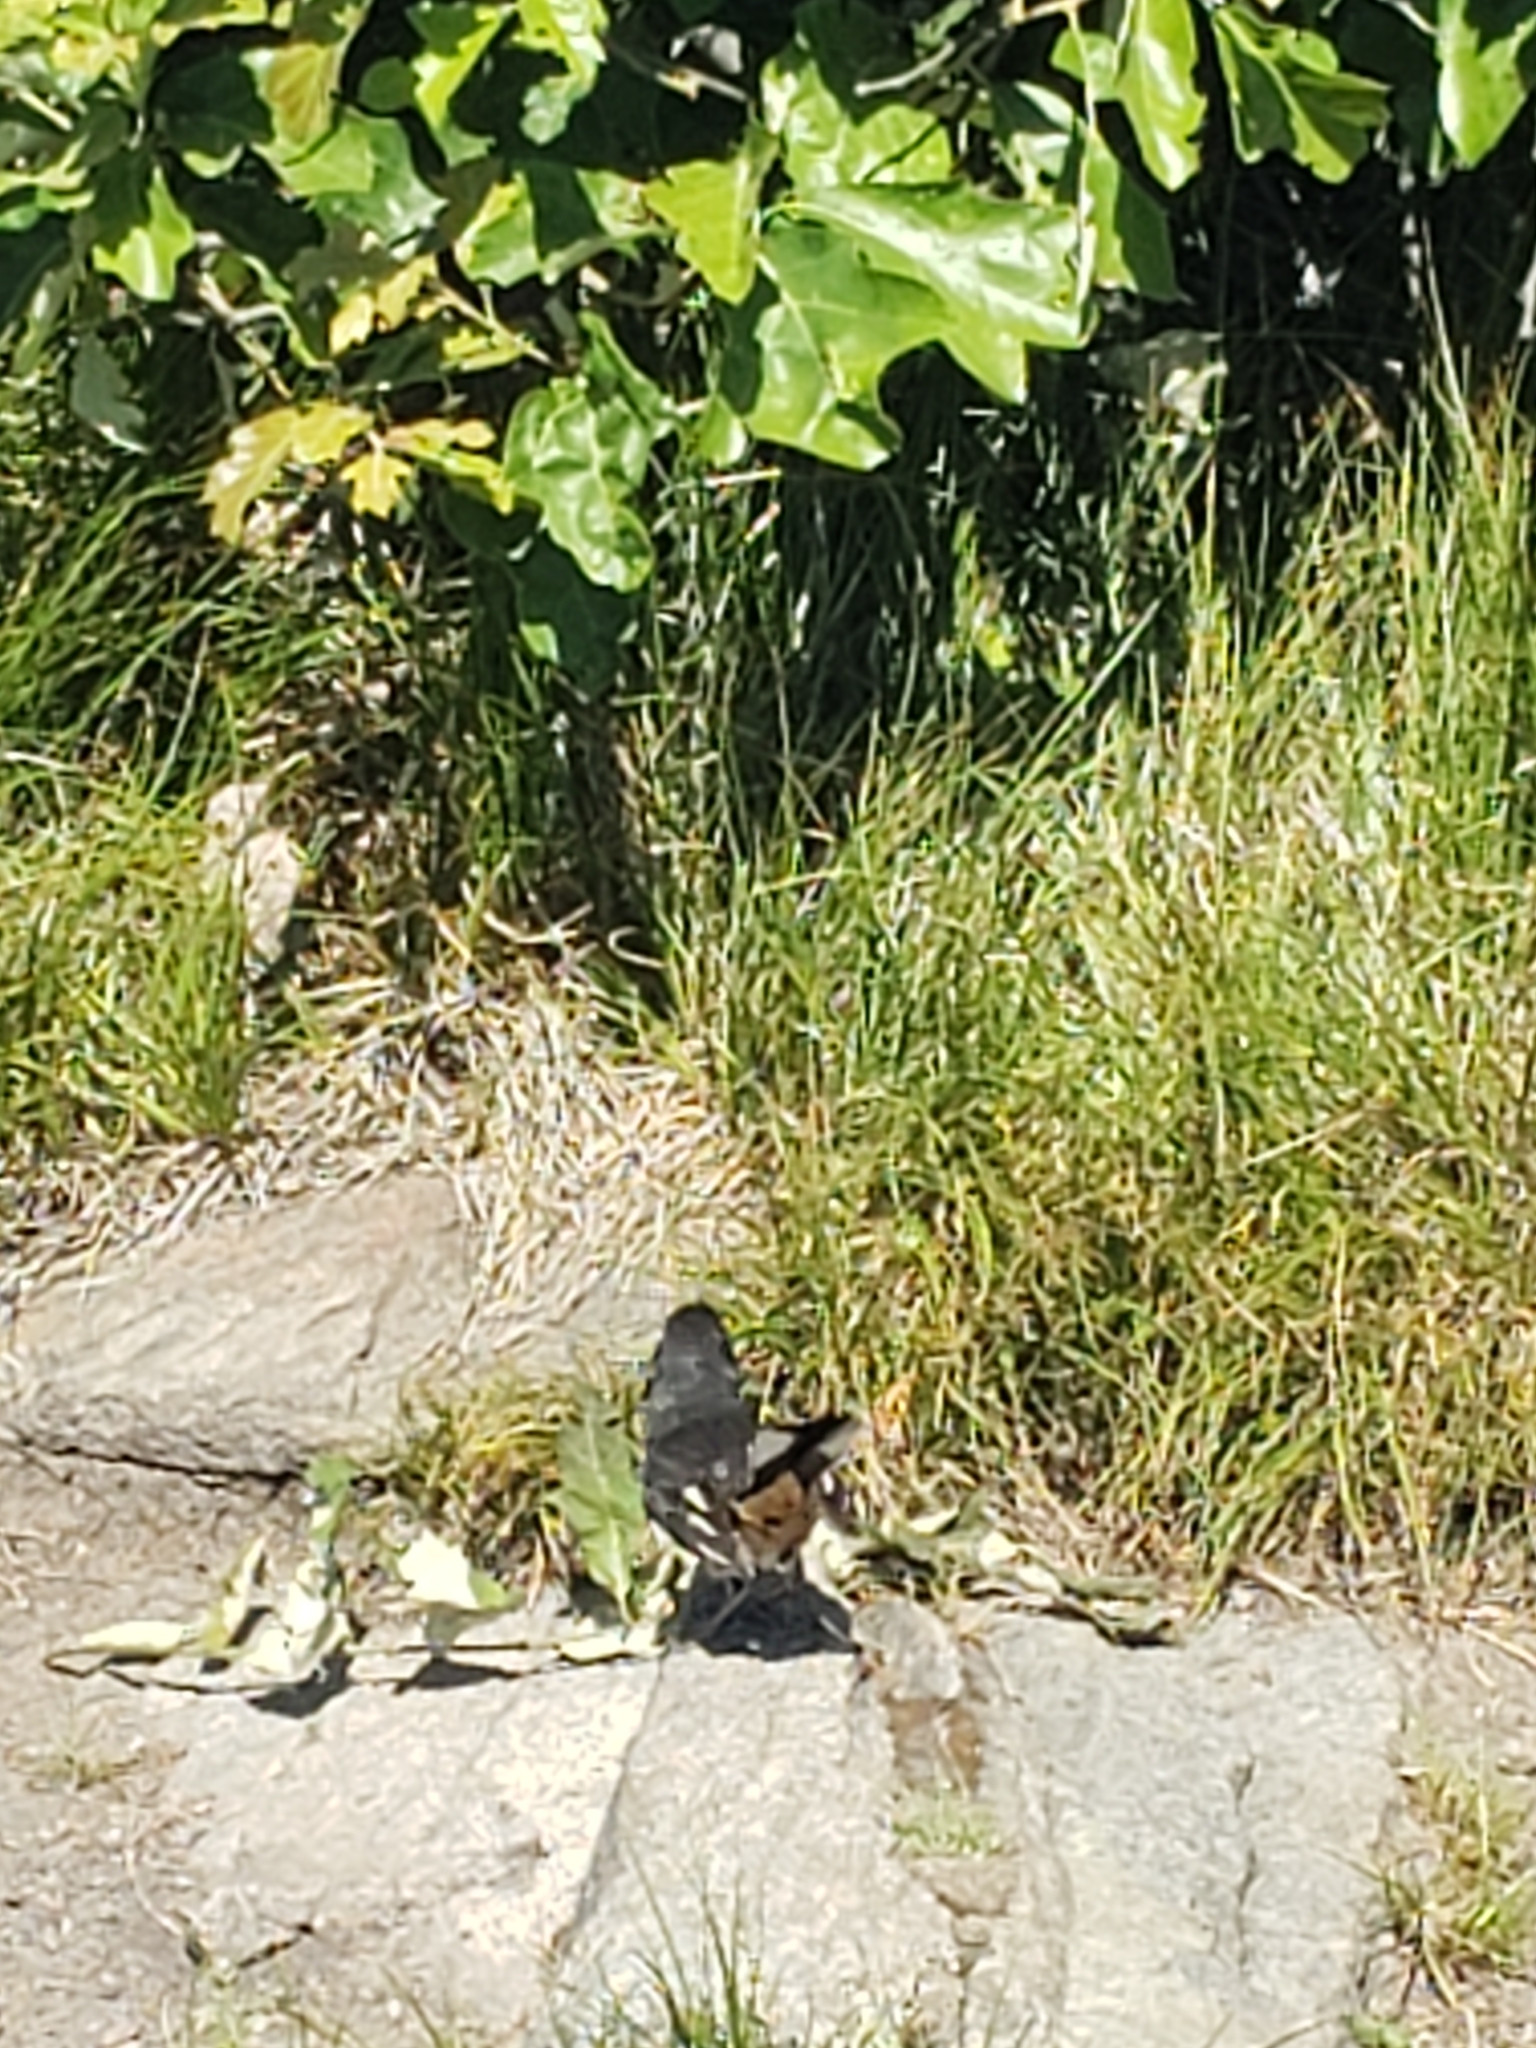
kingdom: Animalia
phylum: Chordata
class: Aves
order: Passeriformes
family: Passerellidae
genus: Pipilo
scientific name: Pipilo erythrophthalmus
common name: Eastern towhee
